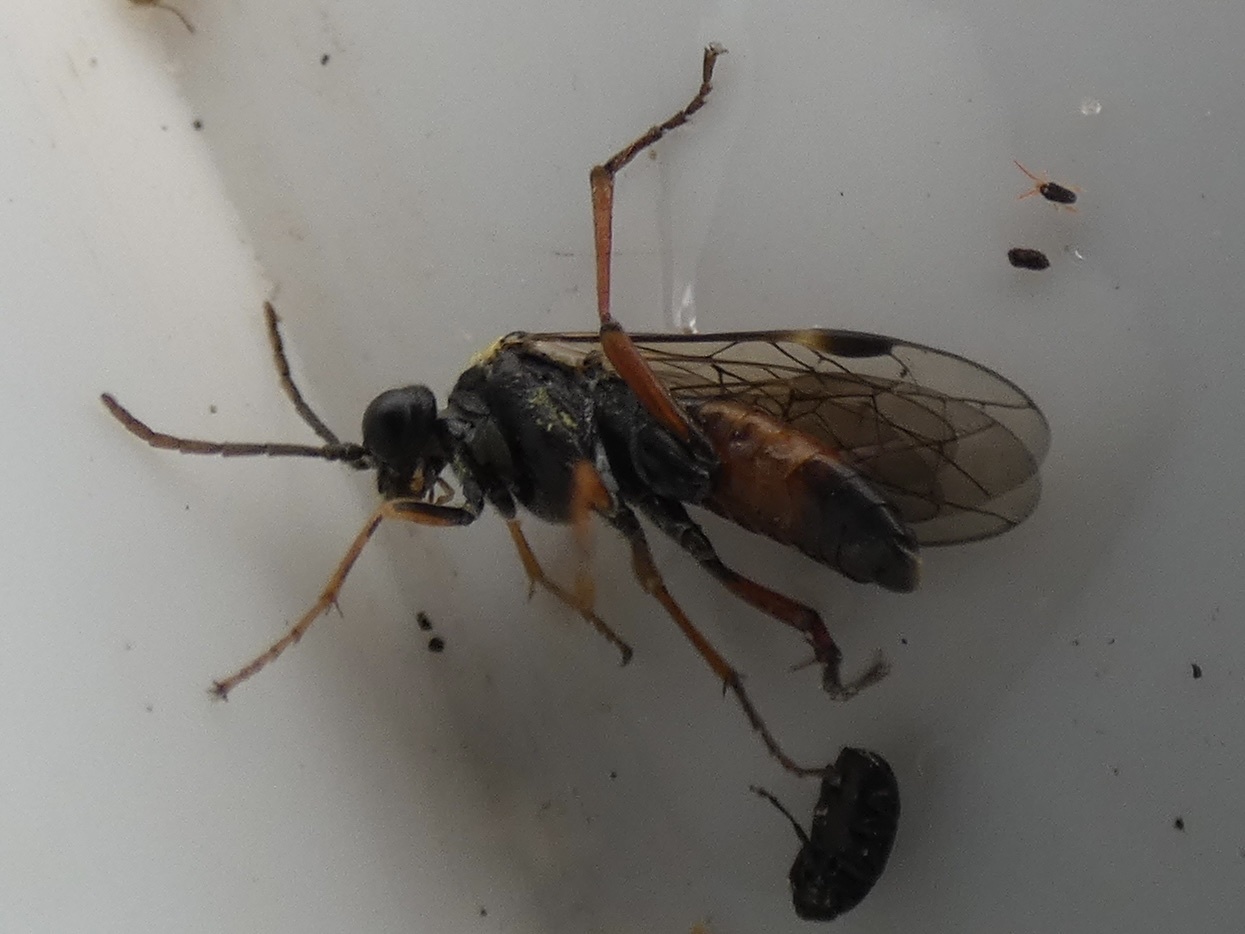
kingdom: Animalia
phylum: Arthropoda
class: Insecta
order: Hymenoptera
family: Tenthredinidae
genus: Aglaostigma
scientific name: Aglaostigma aucupariae
